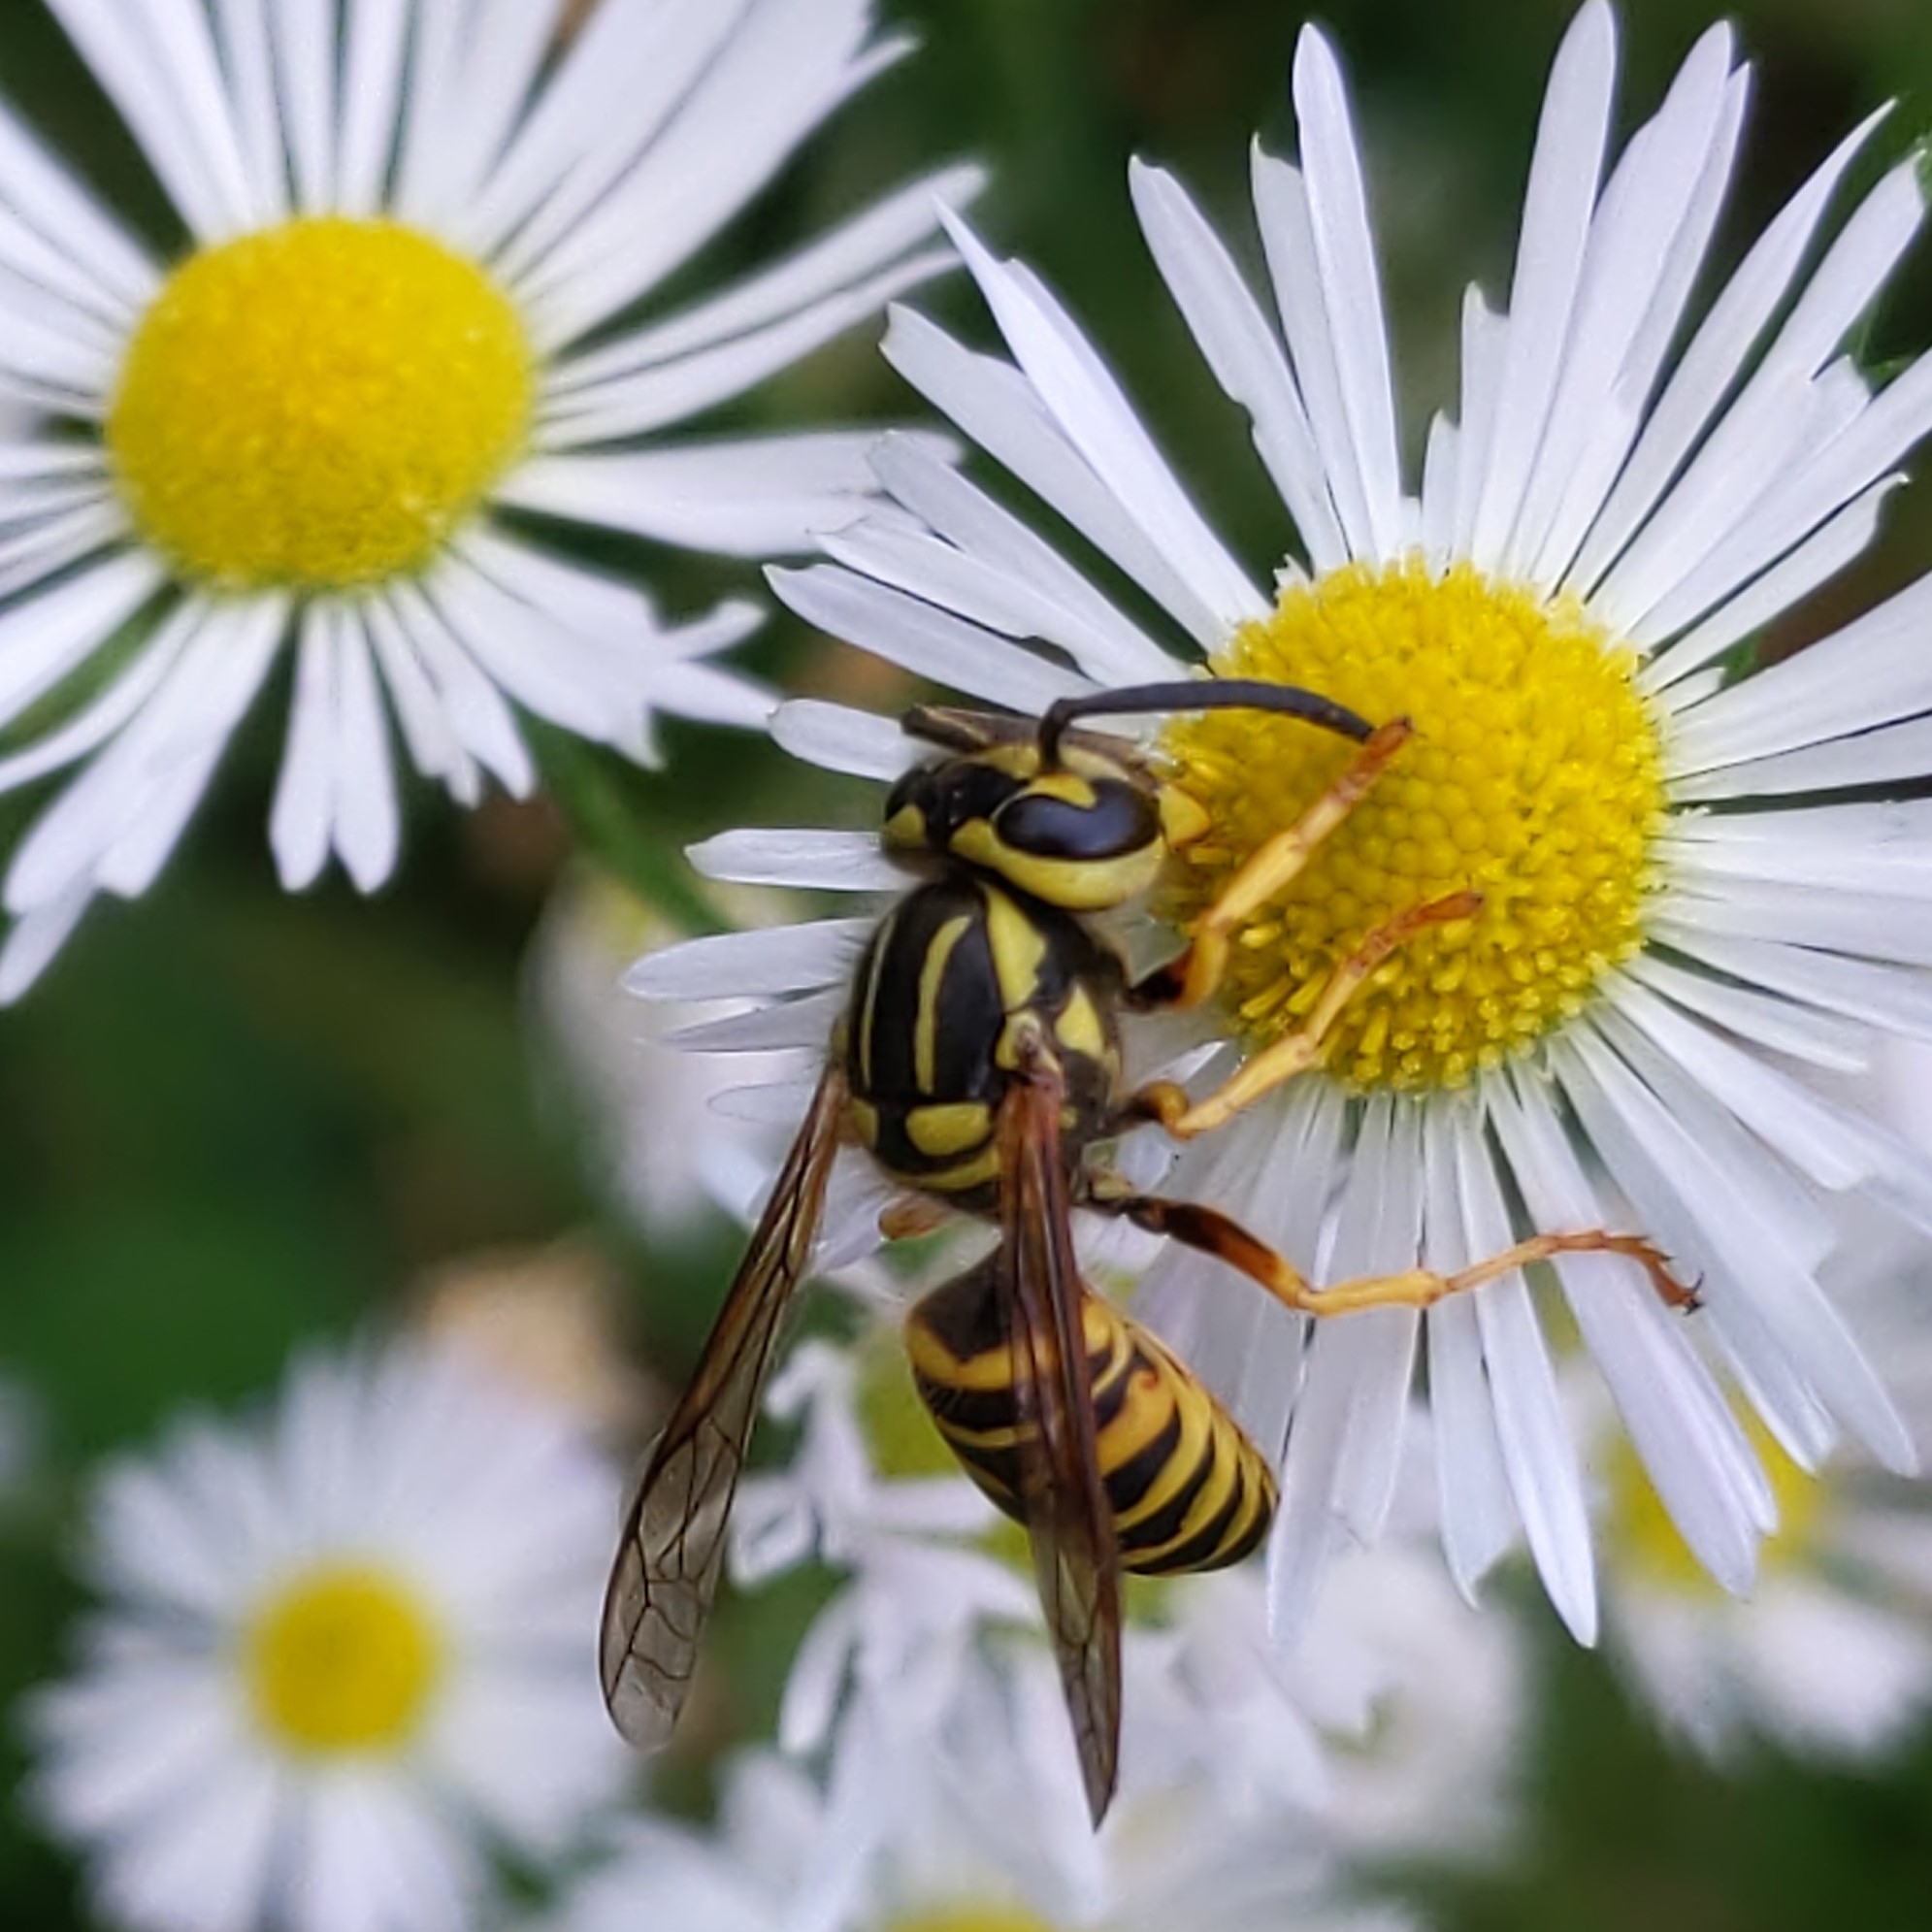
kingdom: Animalia
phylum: Arthropoda
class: Insecta
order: Hymenoptera
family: Vespidae
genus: Vespula
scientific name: Vespula squamosa
